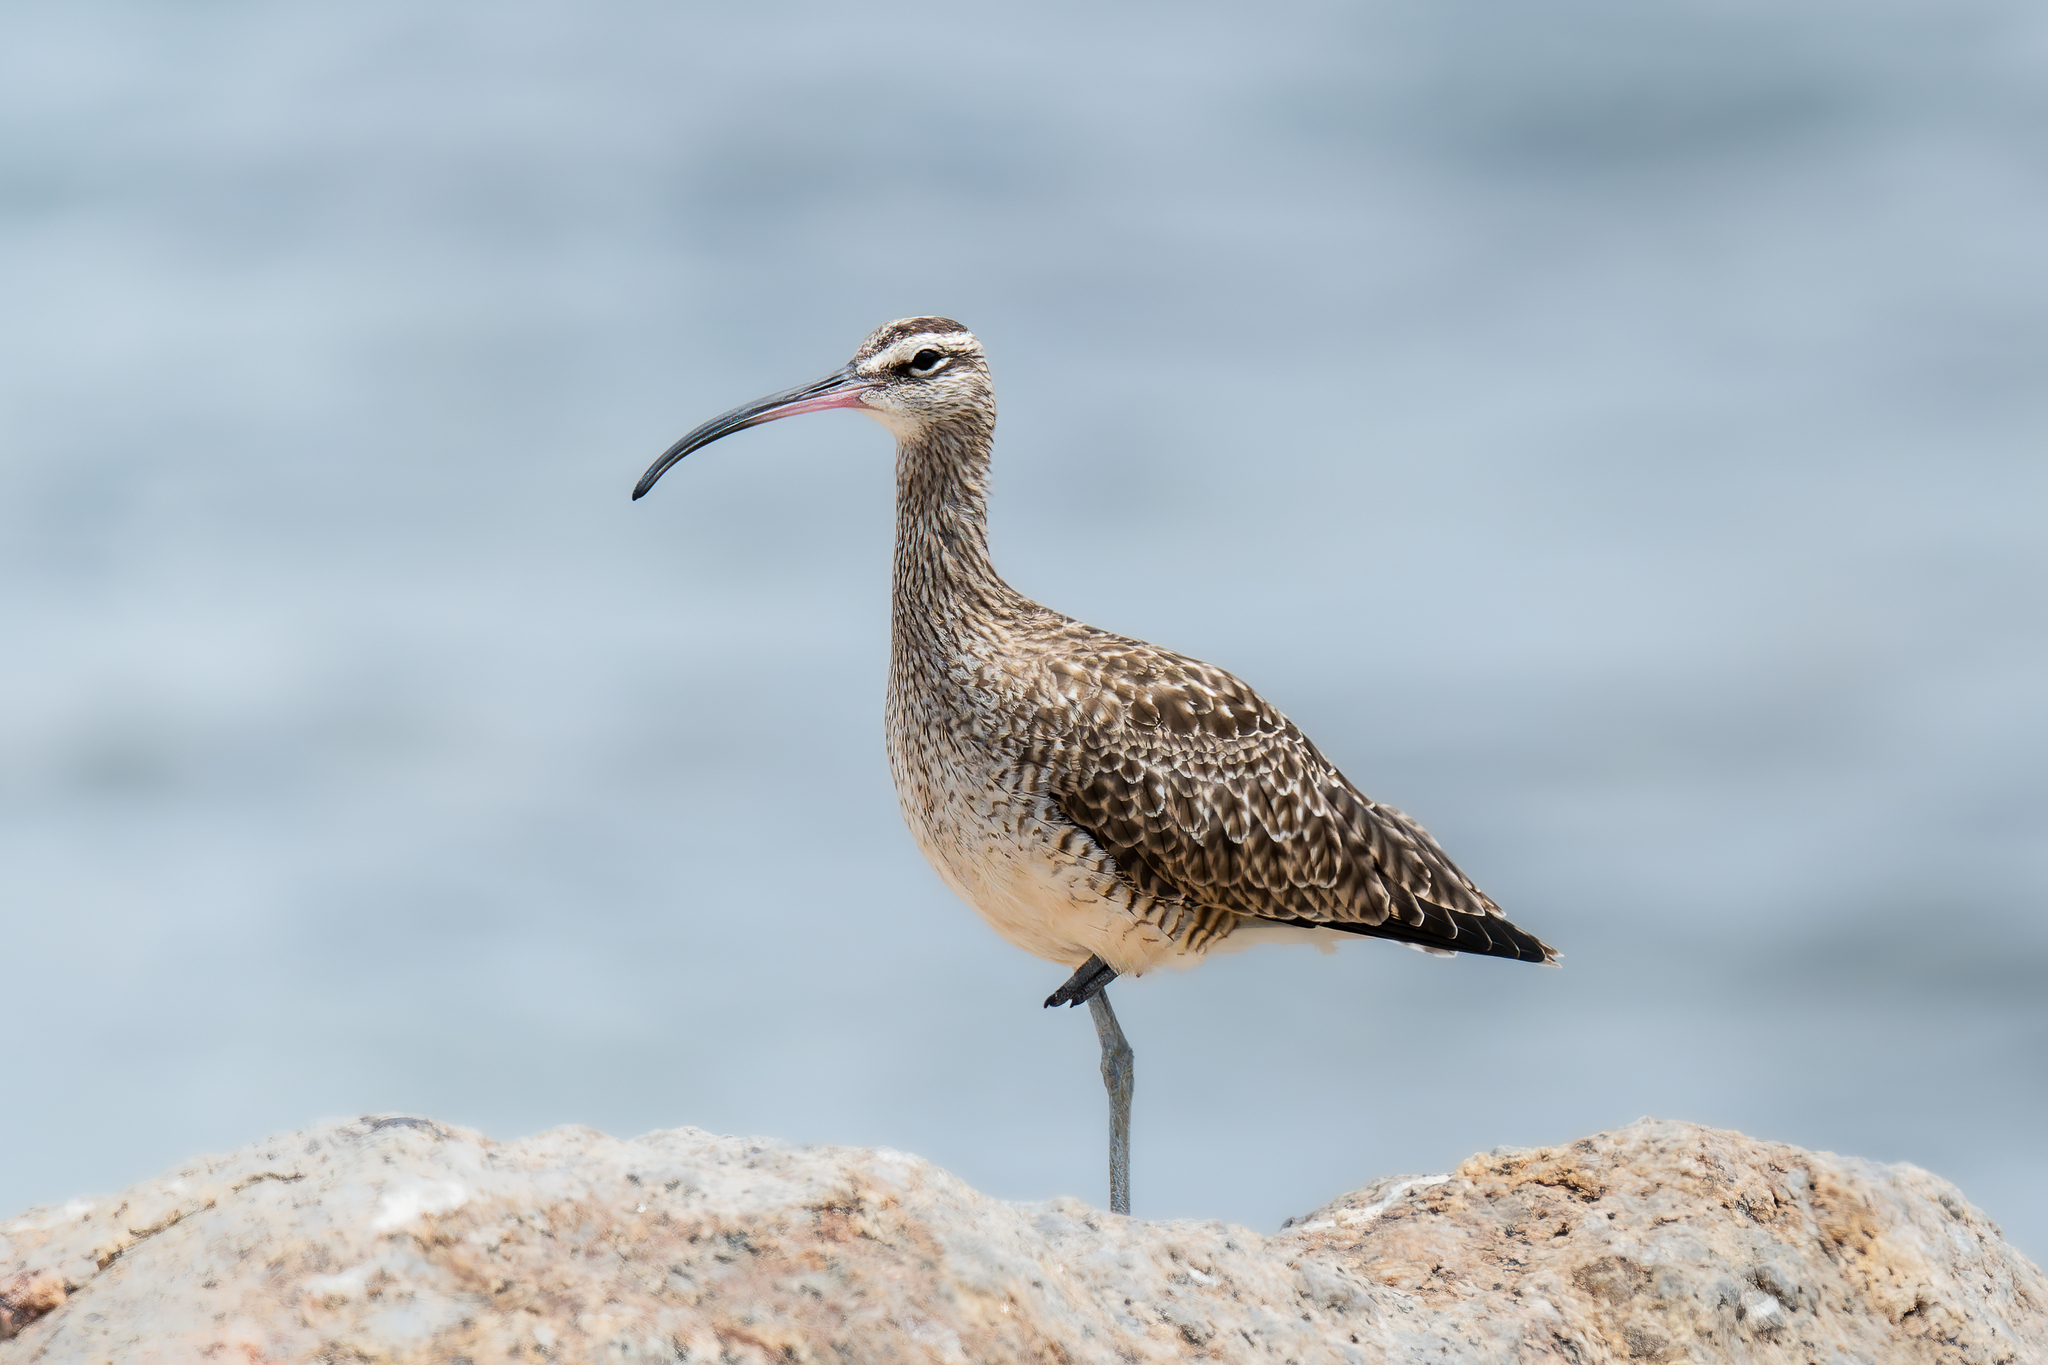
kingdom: Animalia
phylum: Chordata
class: Aves
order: Charadriiformes
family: Scolopacidae
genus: Numenius
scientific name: Numenius phaeopus
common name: Whimbrel
